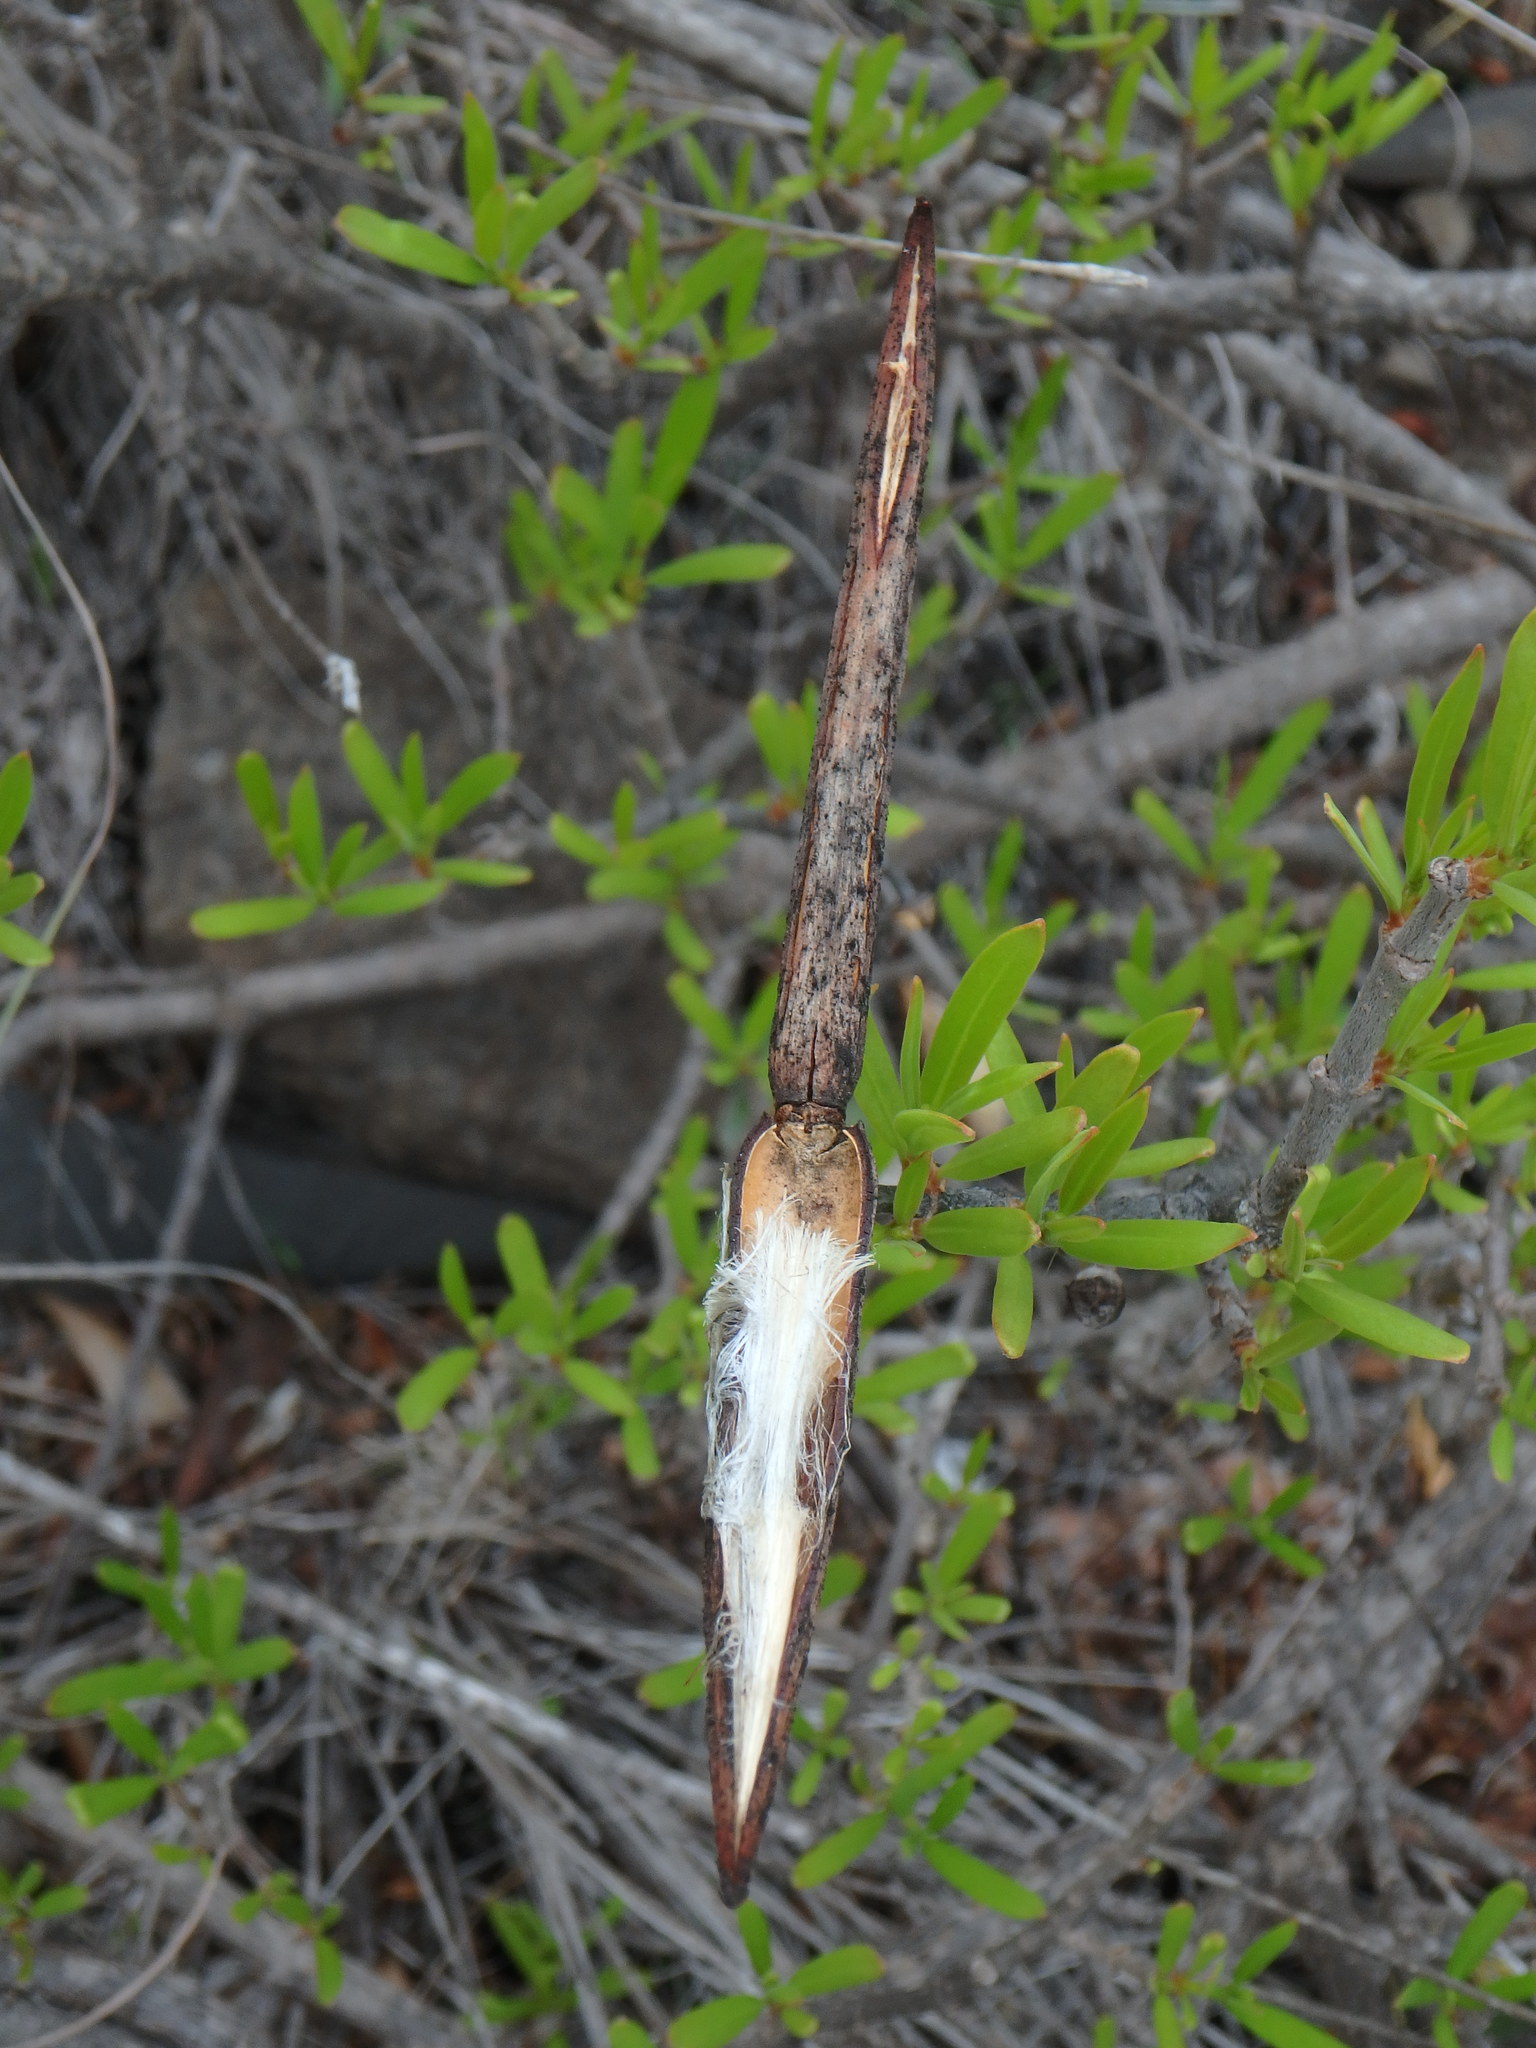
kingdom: Plantae
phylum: Tracheophyta
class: Magnoliopsida
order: Gentianales
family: Apocynaceae
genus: Periploca
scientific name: Periploca laevigata
